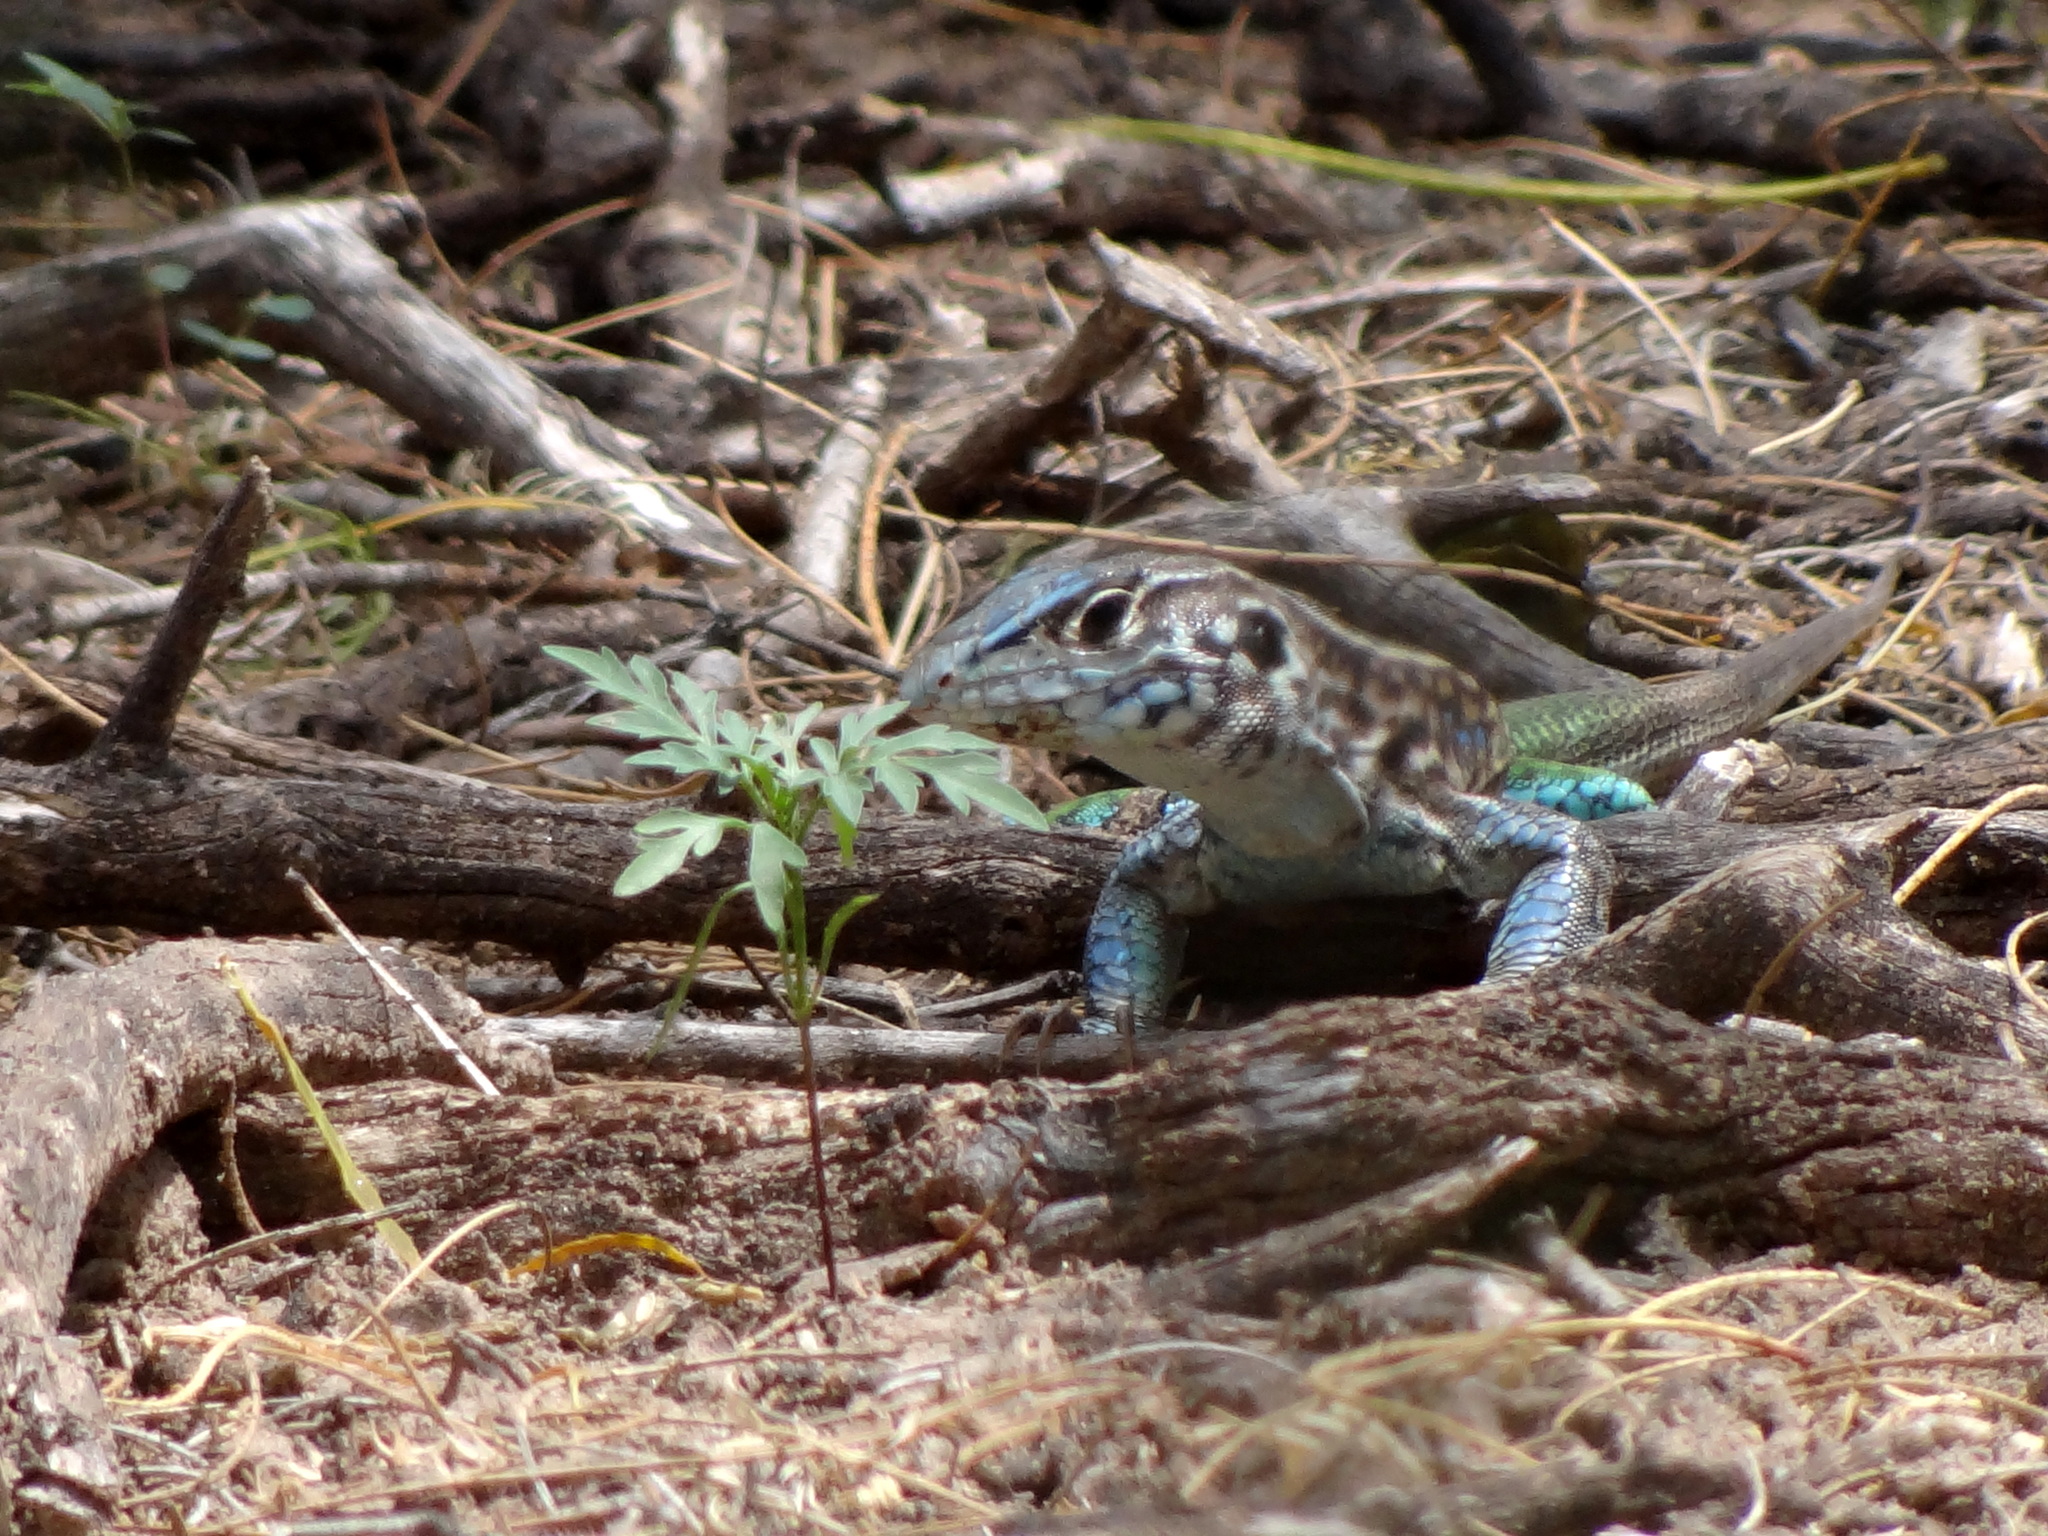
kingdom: Animalia
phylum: Chordata
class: Squamata
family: Teiidae
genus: Teius
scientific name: Teius teyou
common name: Four-toed tegu
